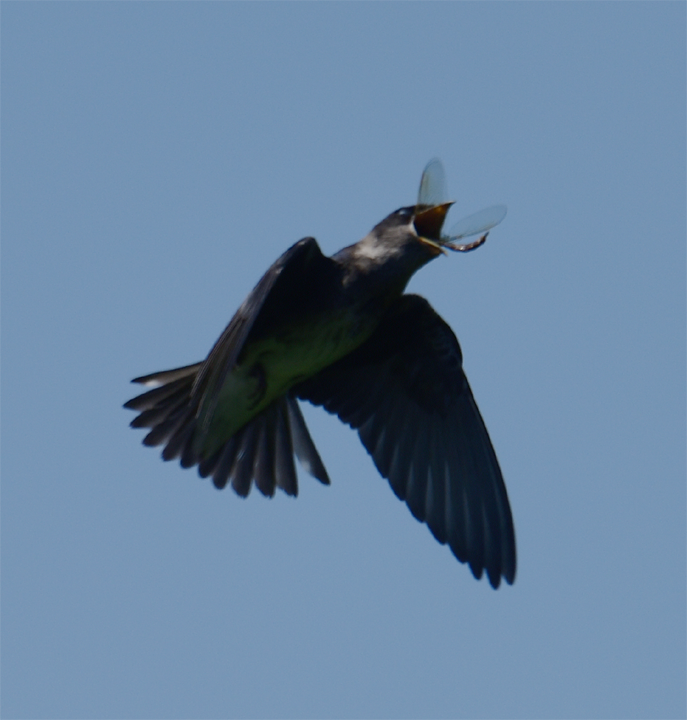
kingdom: Animalia
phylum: Chordata
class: Aves
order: Passeriformes
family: Hirundinidae
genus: Progne
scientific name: Progne subis
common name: Purple martin
